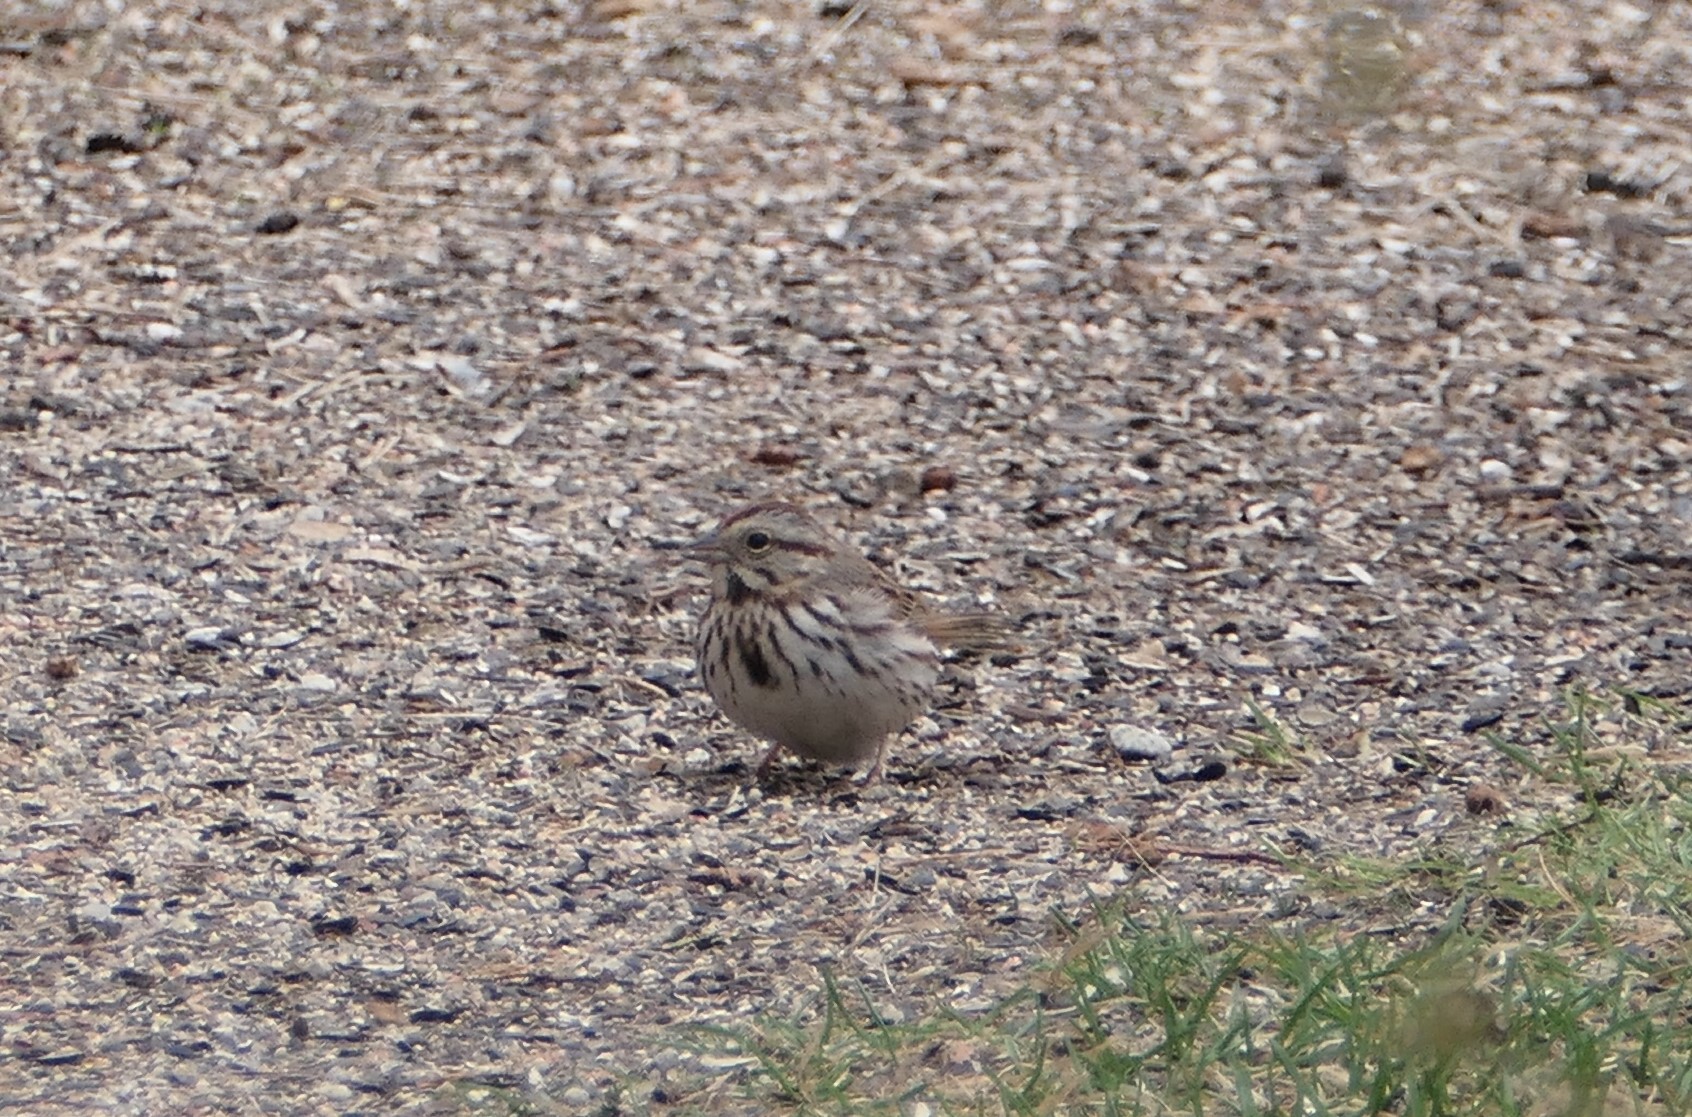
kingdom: Animalia
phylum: Chordata
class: Aves
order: Passeriformes
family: Passerellidae
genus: Melospiza
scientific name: Melospiza melodia
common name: Song sparrow
